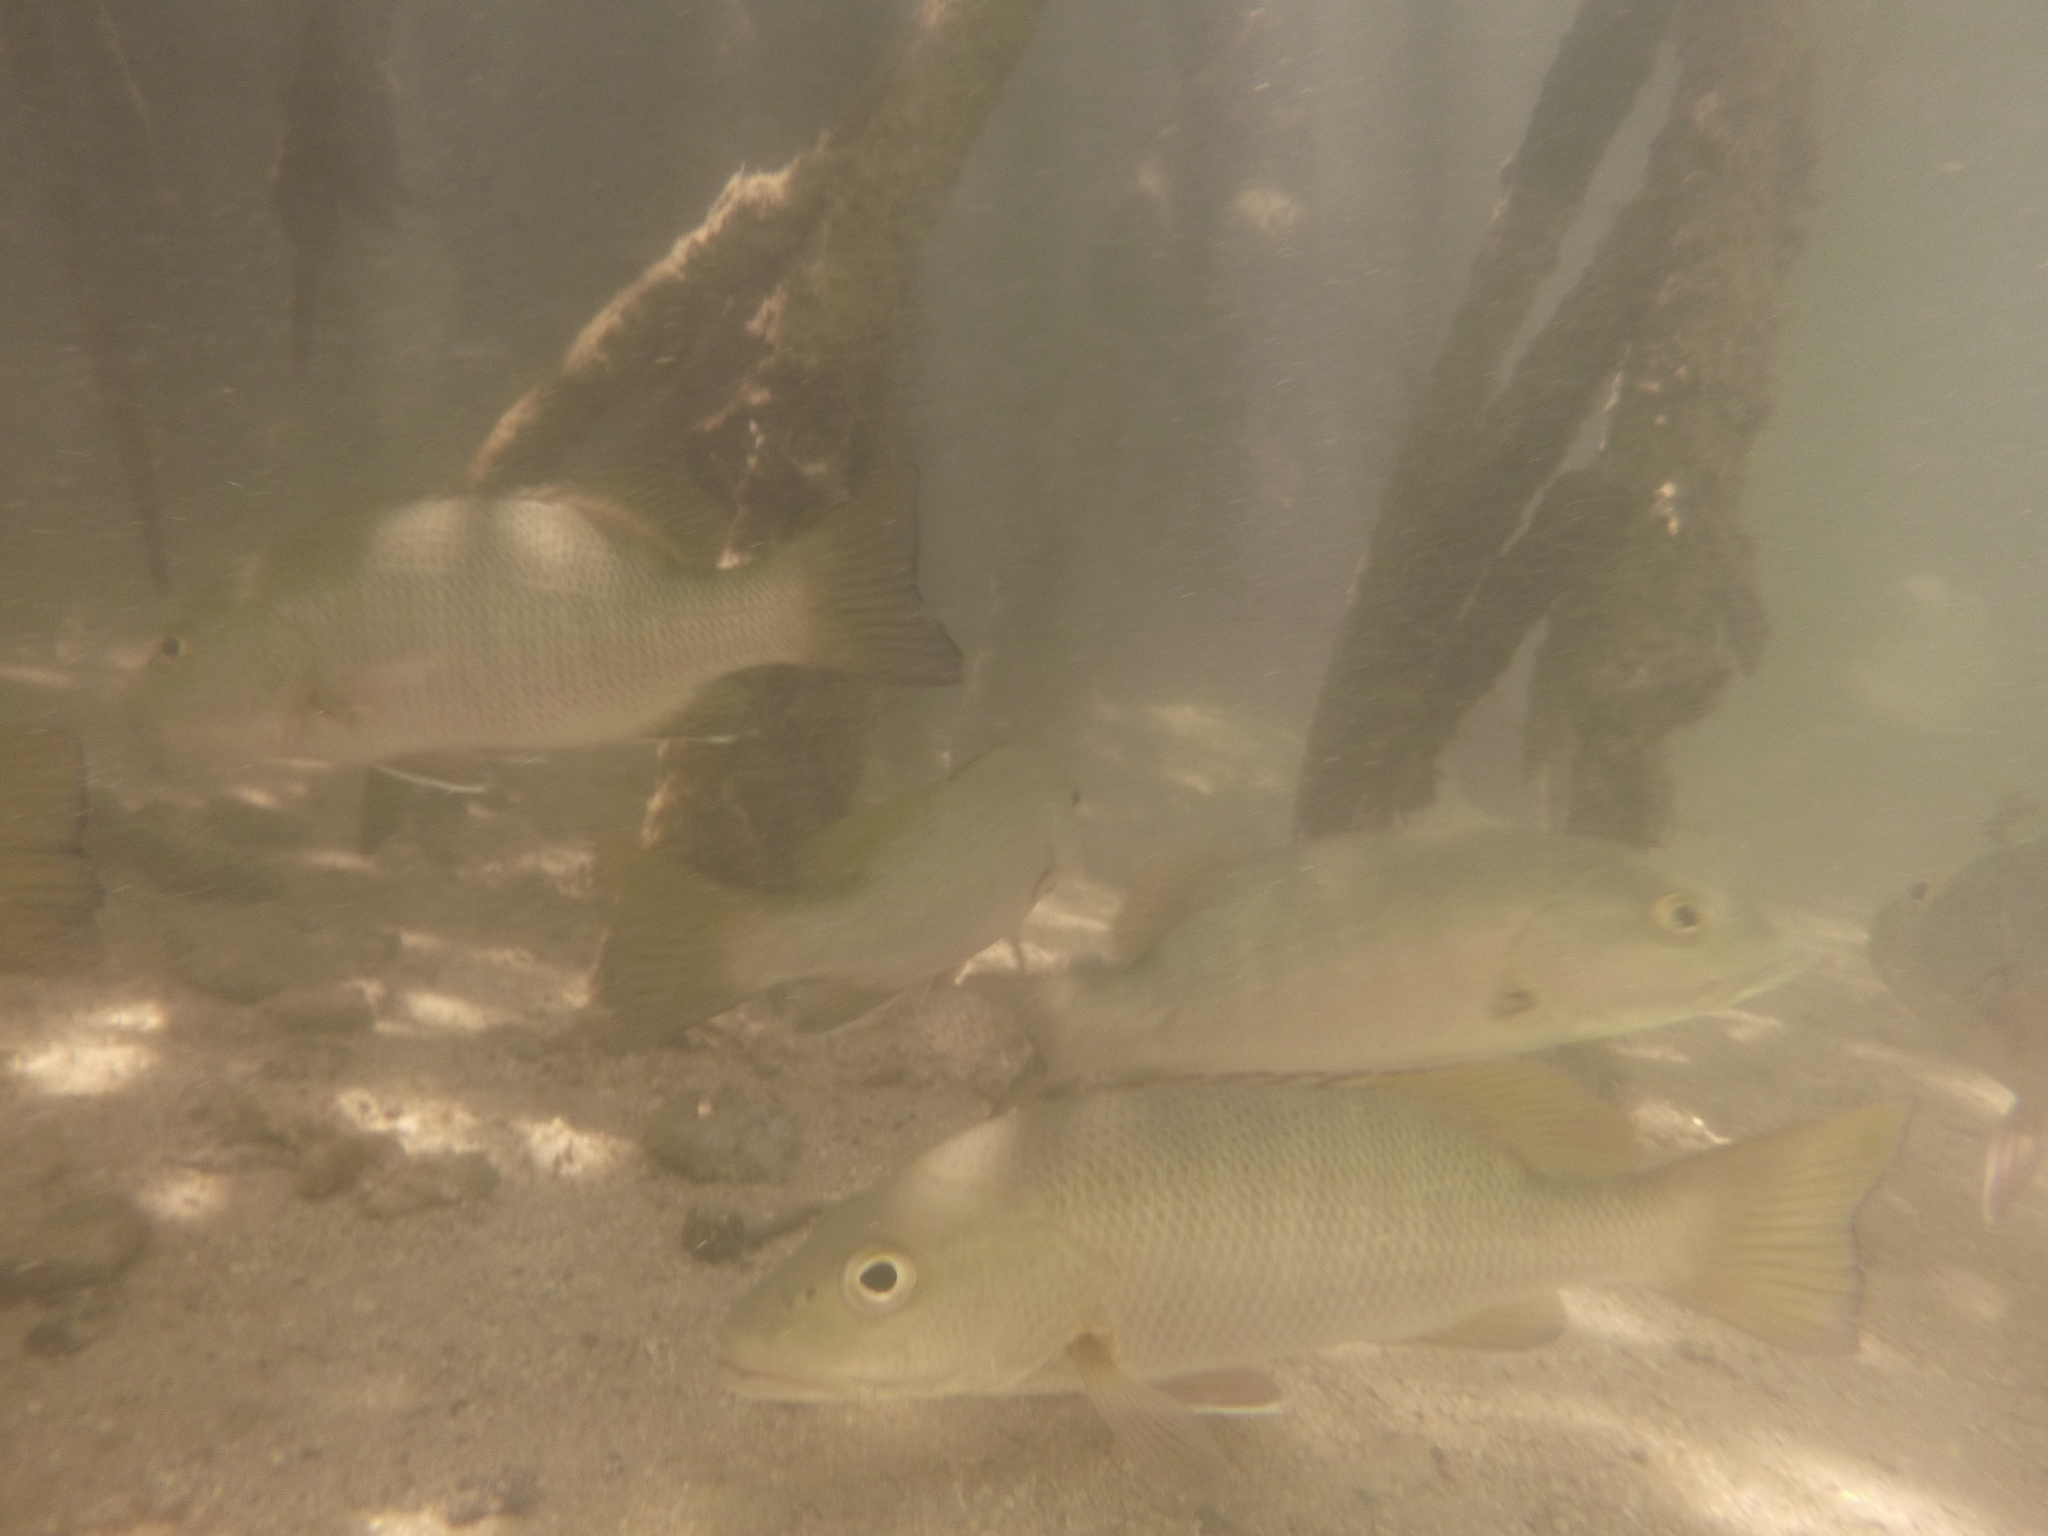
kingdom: Animalia
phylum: Chordata
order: Perciformes
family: Lutjanidae
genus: Lutjanus
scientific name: Lutjanus novemfasciatus
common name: Pacific dog snapper
